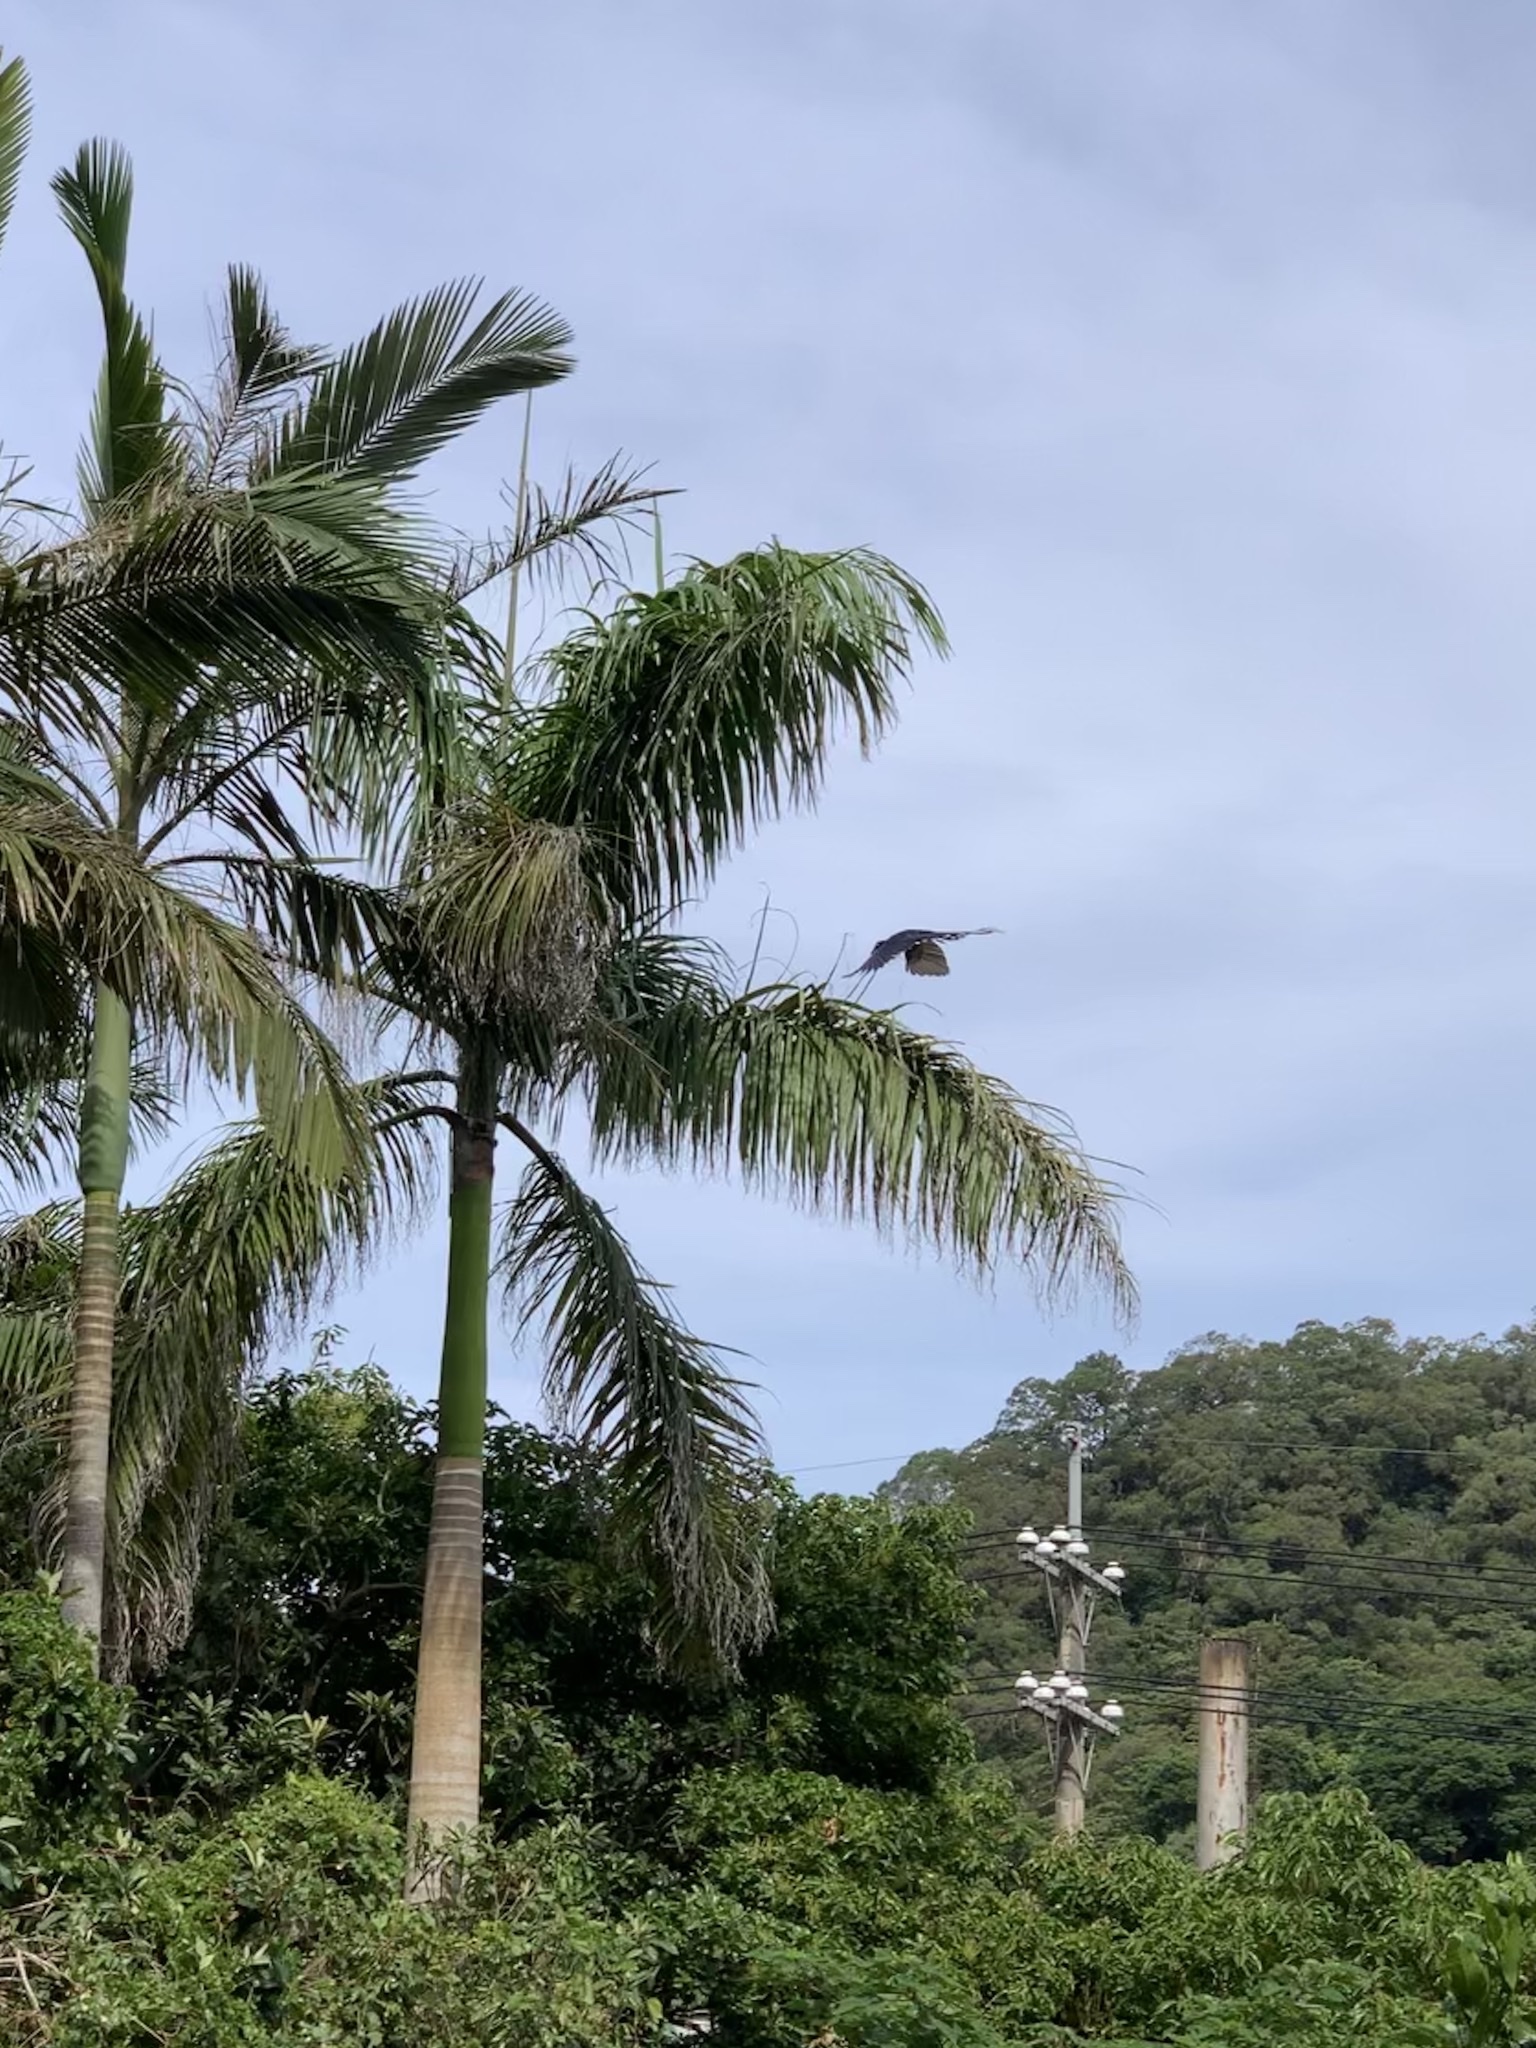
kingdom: Animalia
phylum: Chordata
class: Aves
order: Passeriformes
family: Corvidae
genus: Urocissa
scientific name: Urocissa caerulea
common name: Taiwan blue magpie
